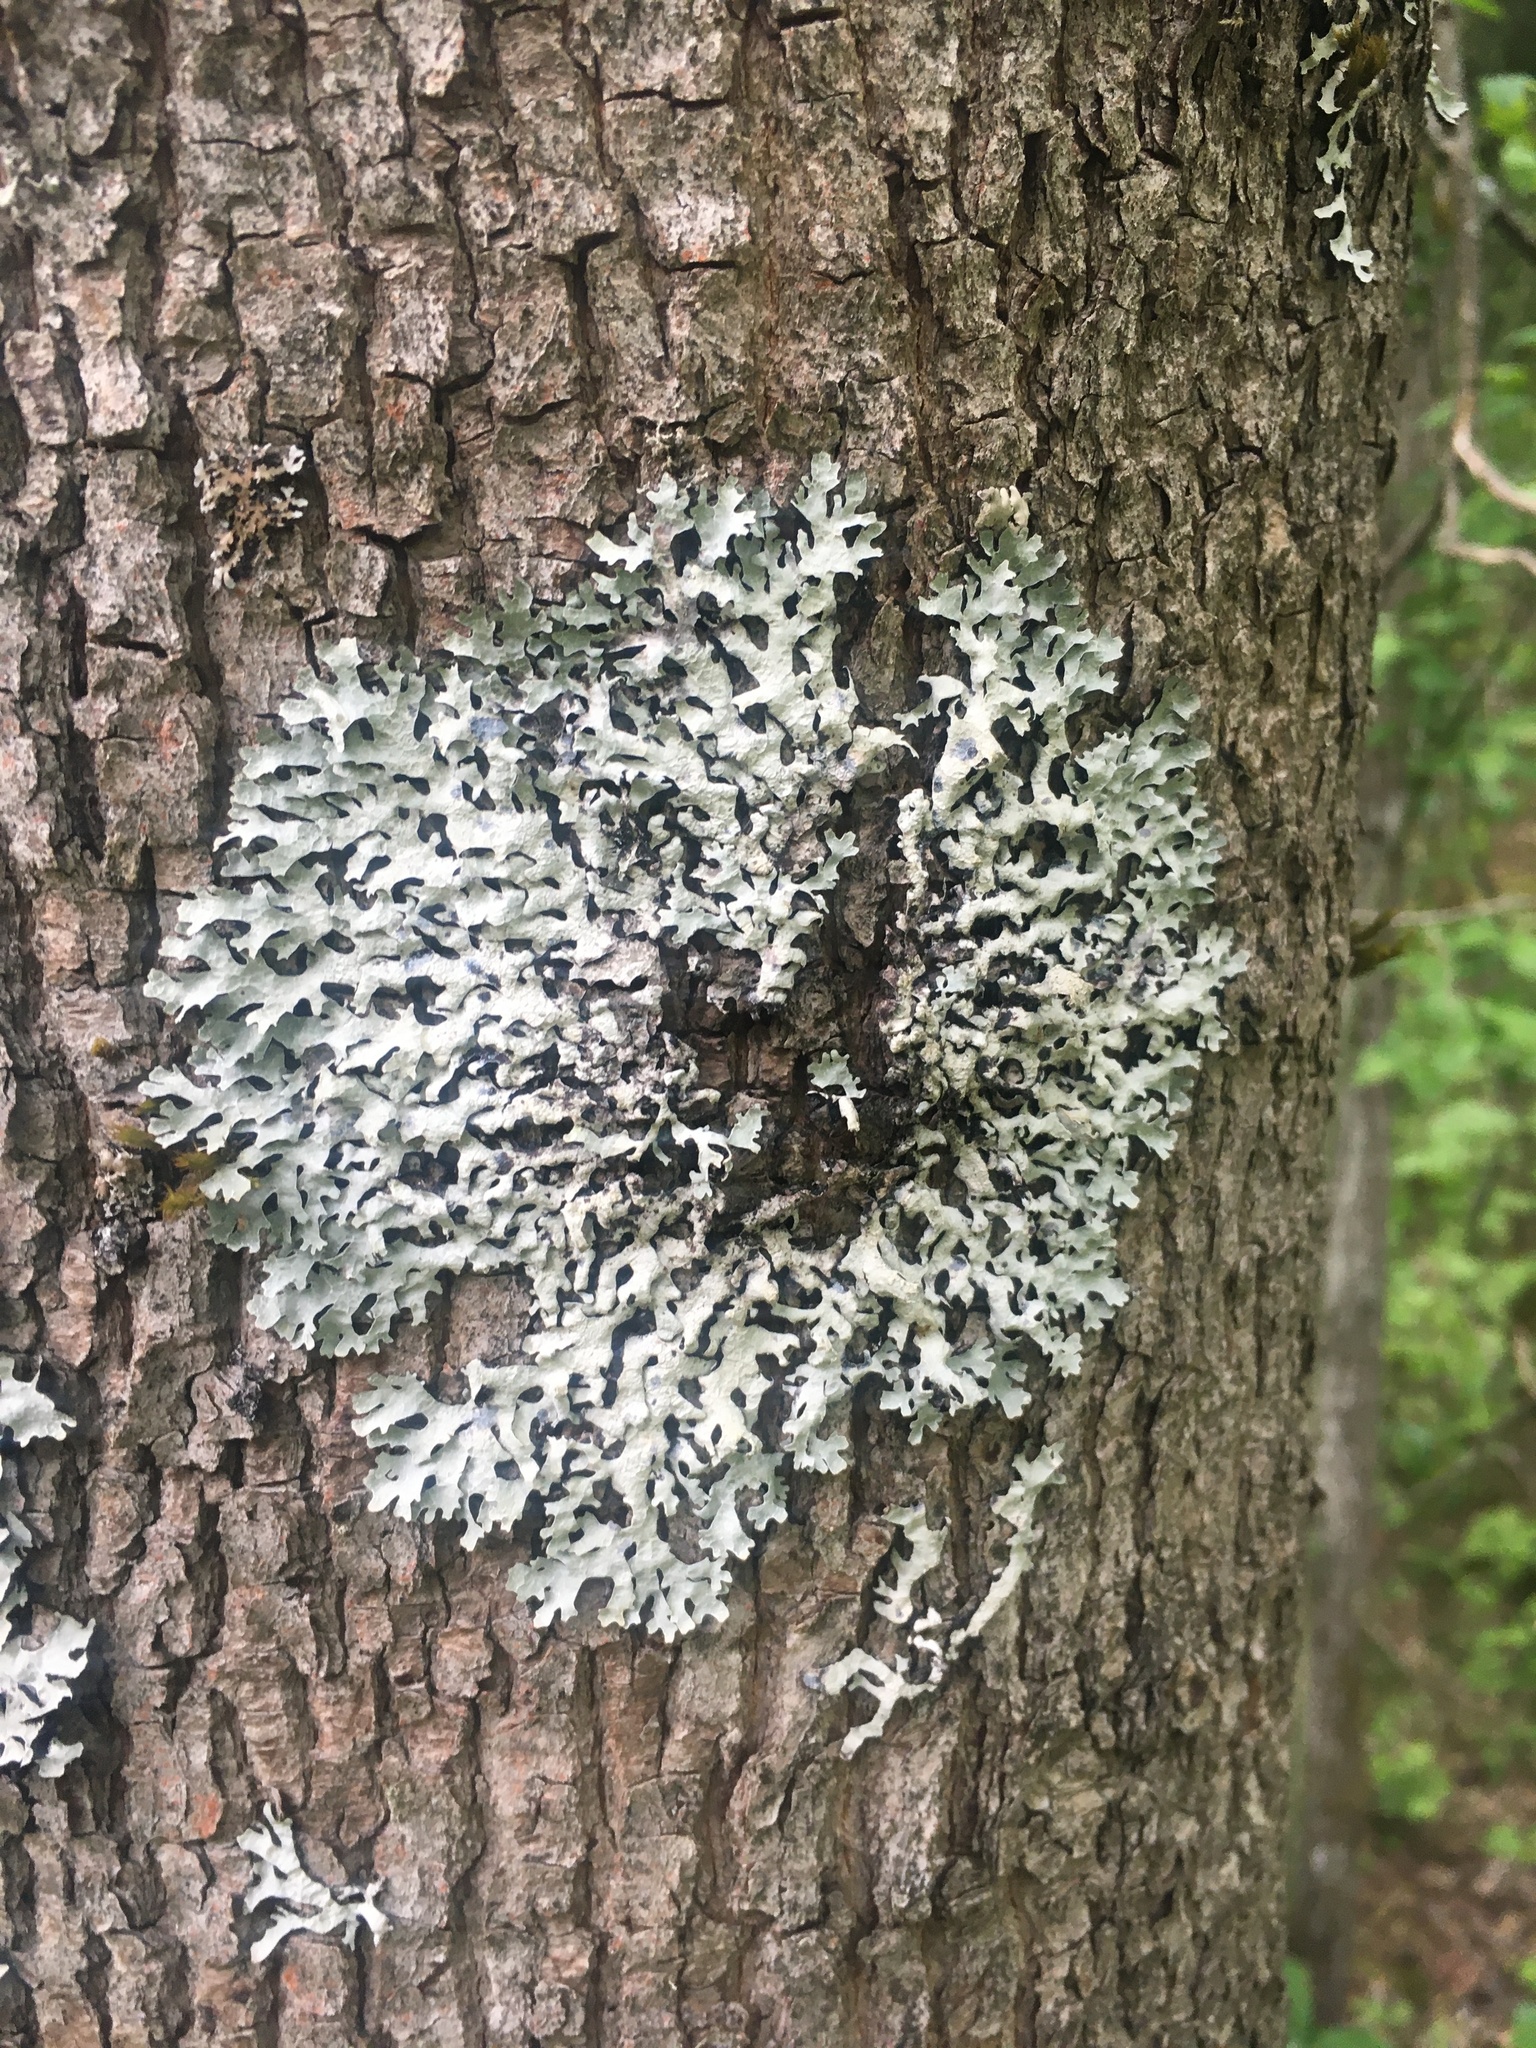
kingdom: Fungi
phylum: Ascomycota
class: Lecanoromycetes
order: Lecanorales
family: Parmeliaceae
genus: Parmelia
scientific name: Parmelia sulcata
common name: Netted shield lichen
